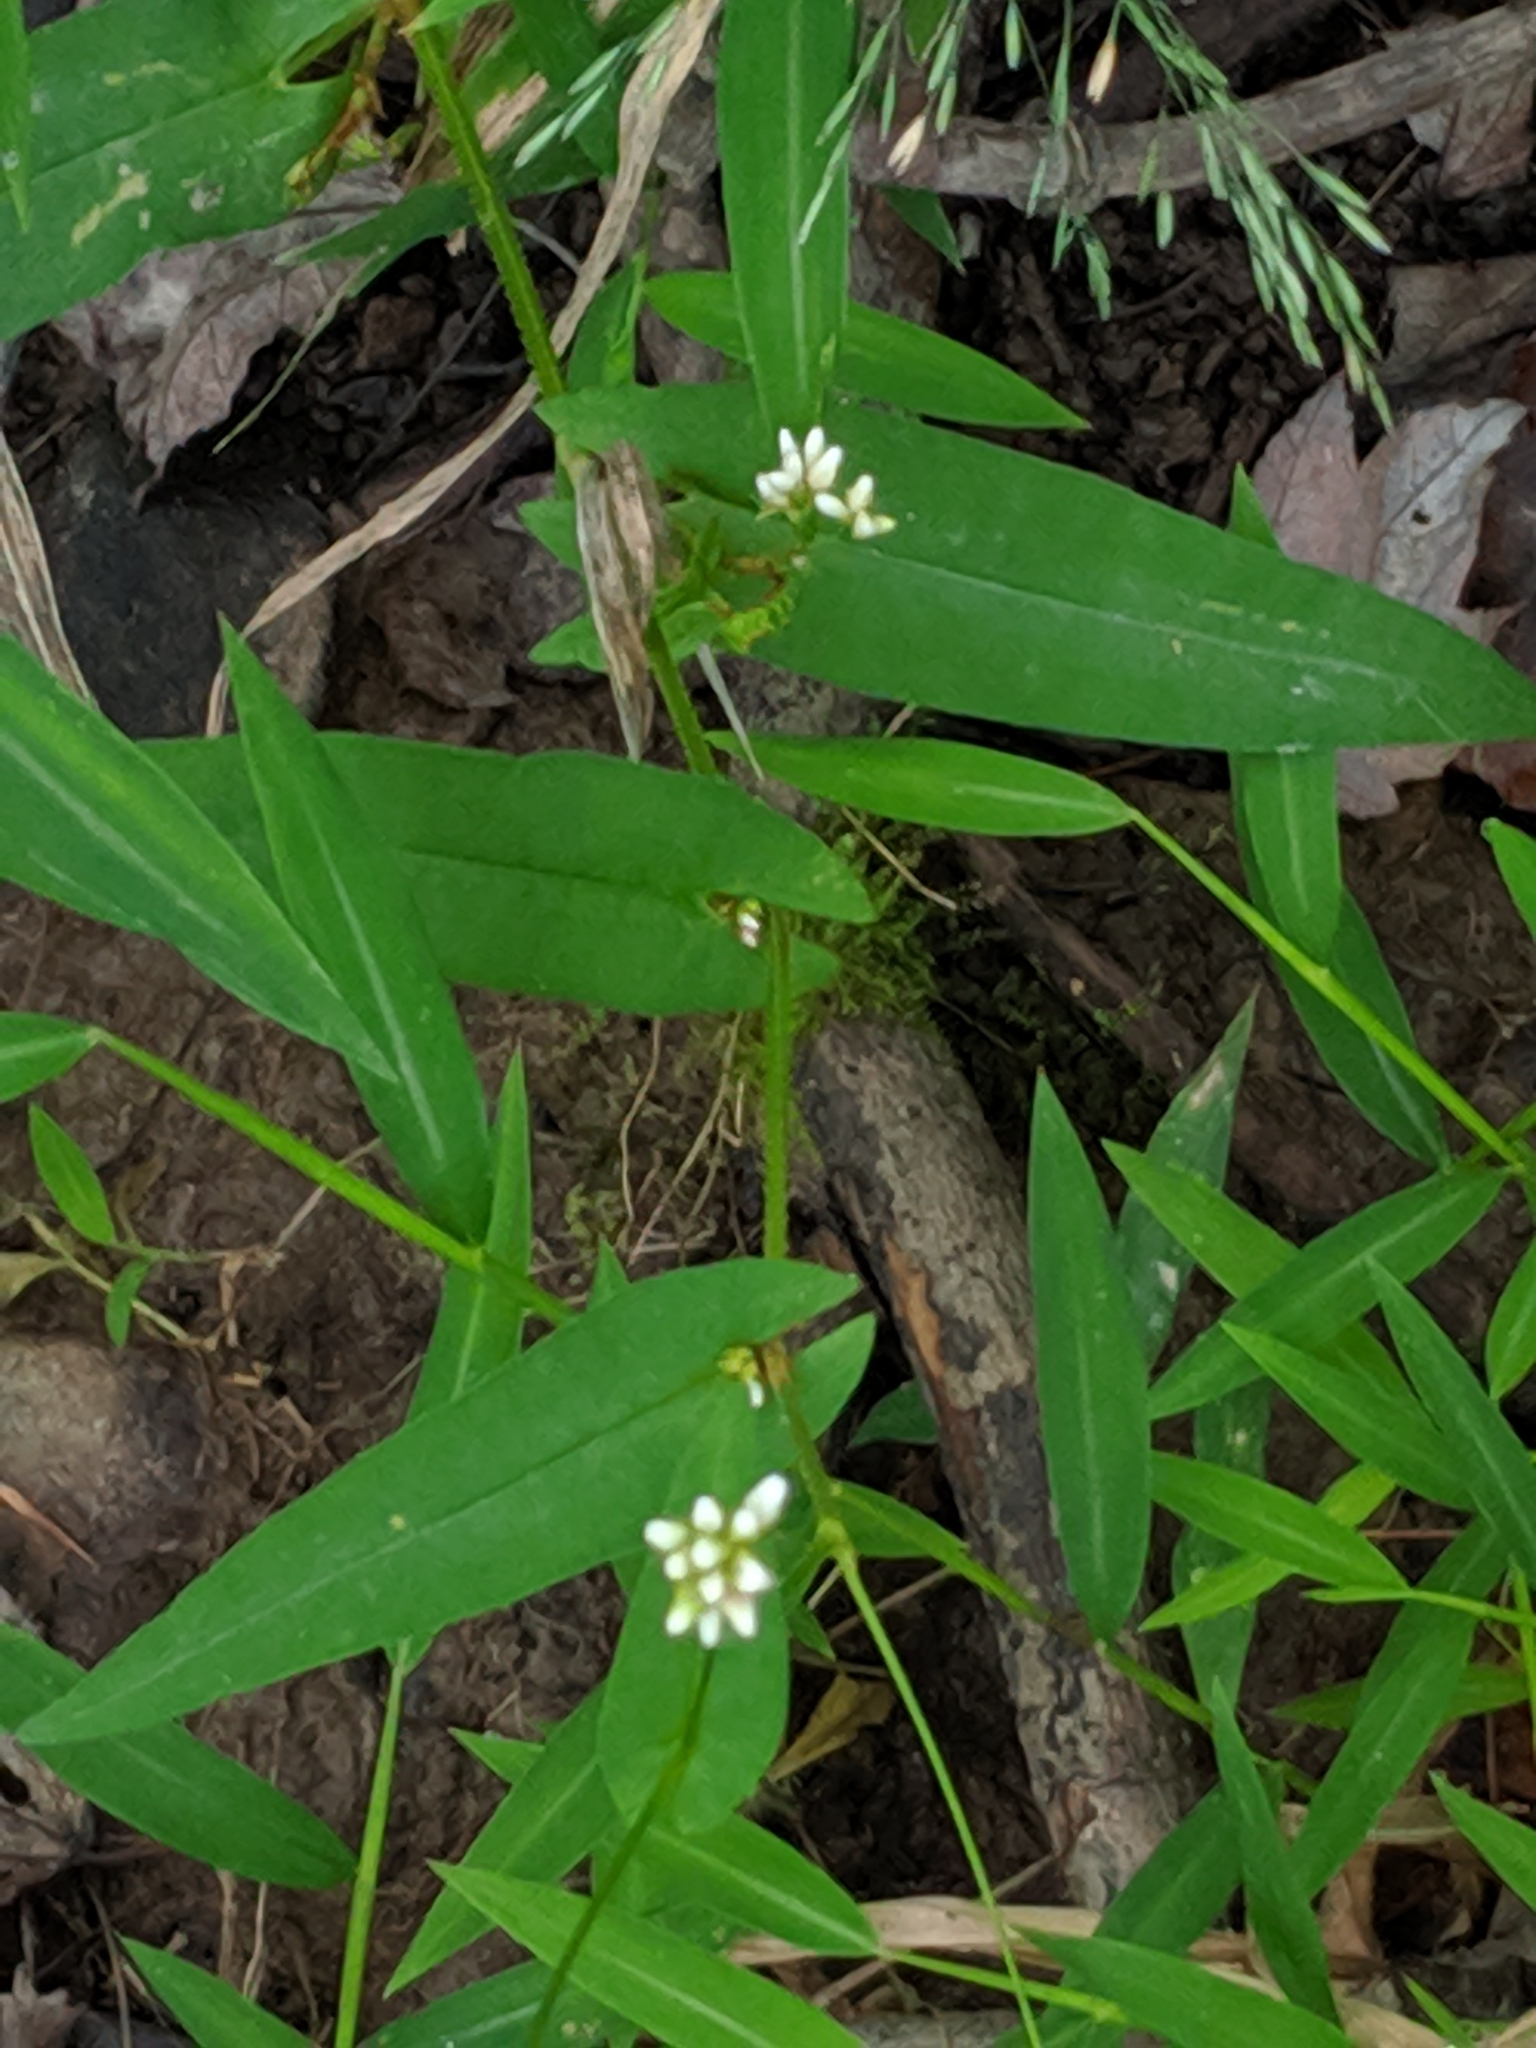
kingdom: Plantae
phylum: Tracheophyta
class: Magnoliopsida
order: Caryophyllales
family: Polygonaceae
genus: Persicaria
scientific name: Persicaria sagittata
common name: American tearthumb
